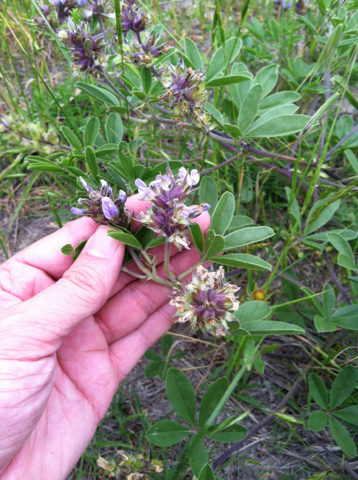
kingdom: Plantae
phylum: Tracheophyta
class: Magnoliopsida
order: Fabales
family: Fabaceae
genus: Pediomelum
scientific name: Pediomelum cuspidatum
